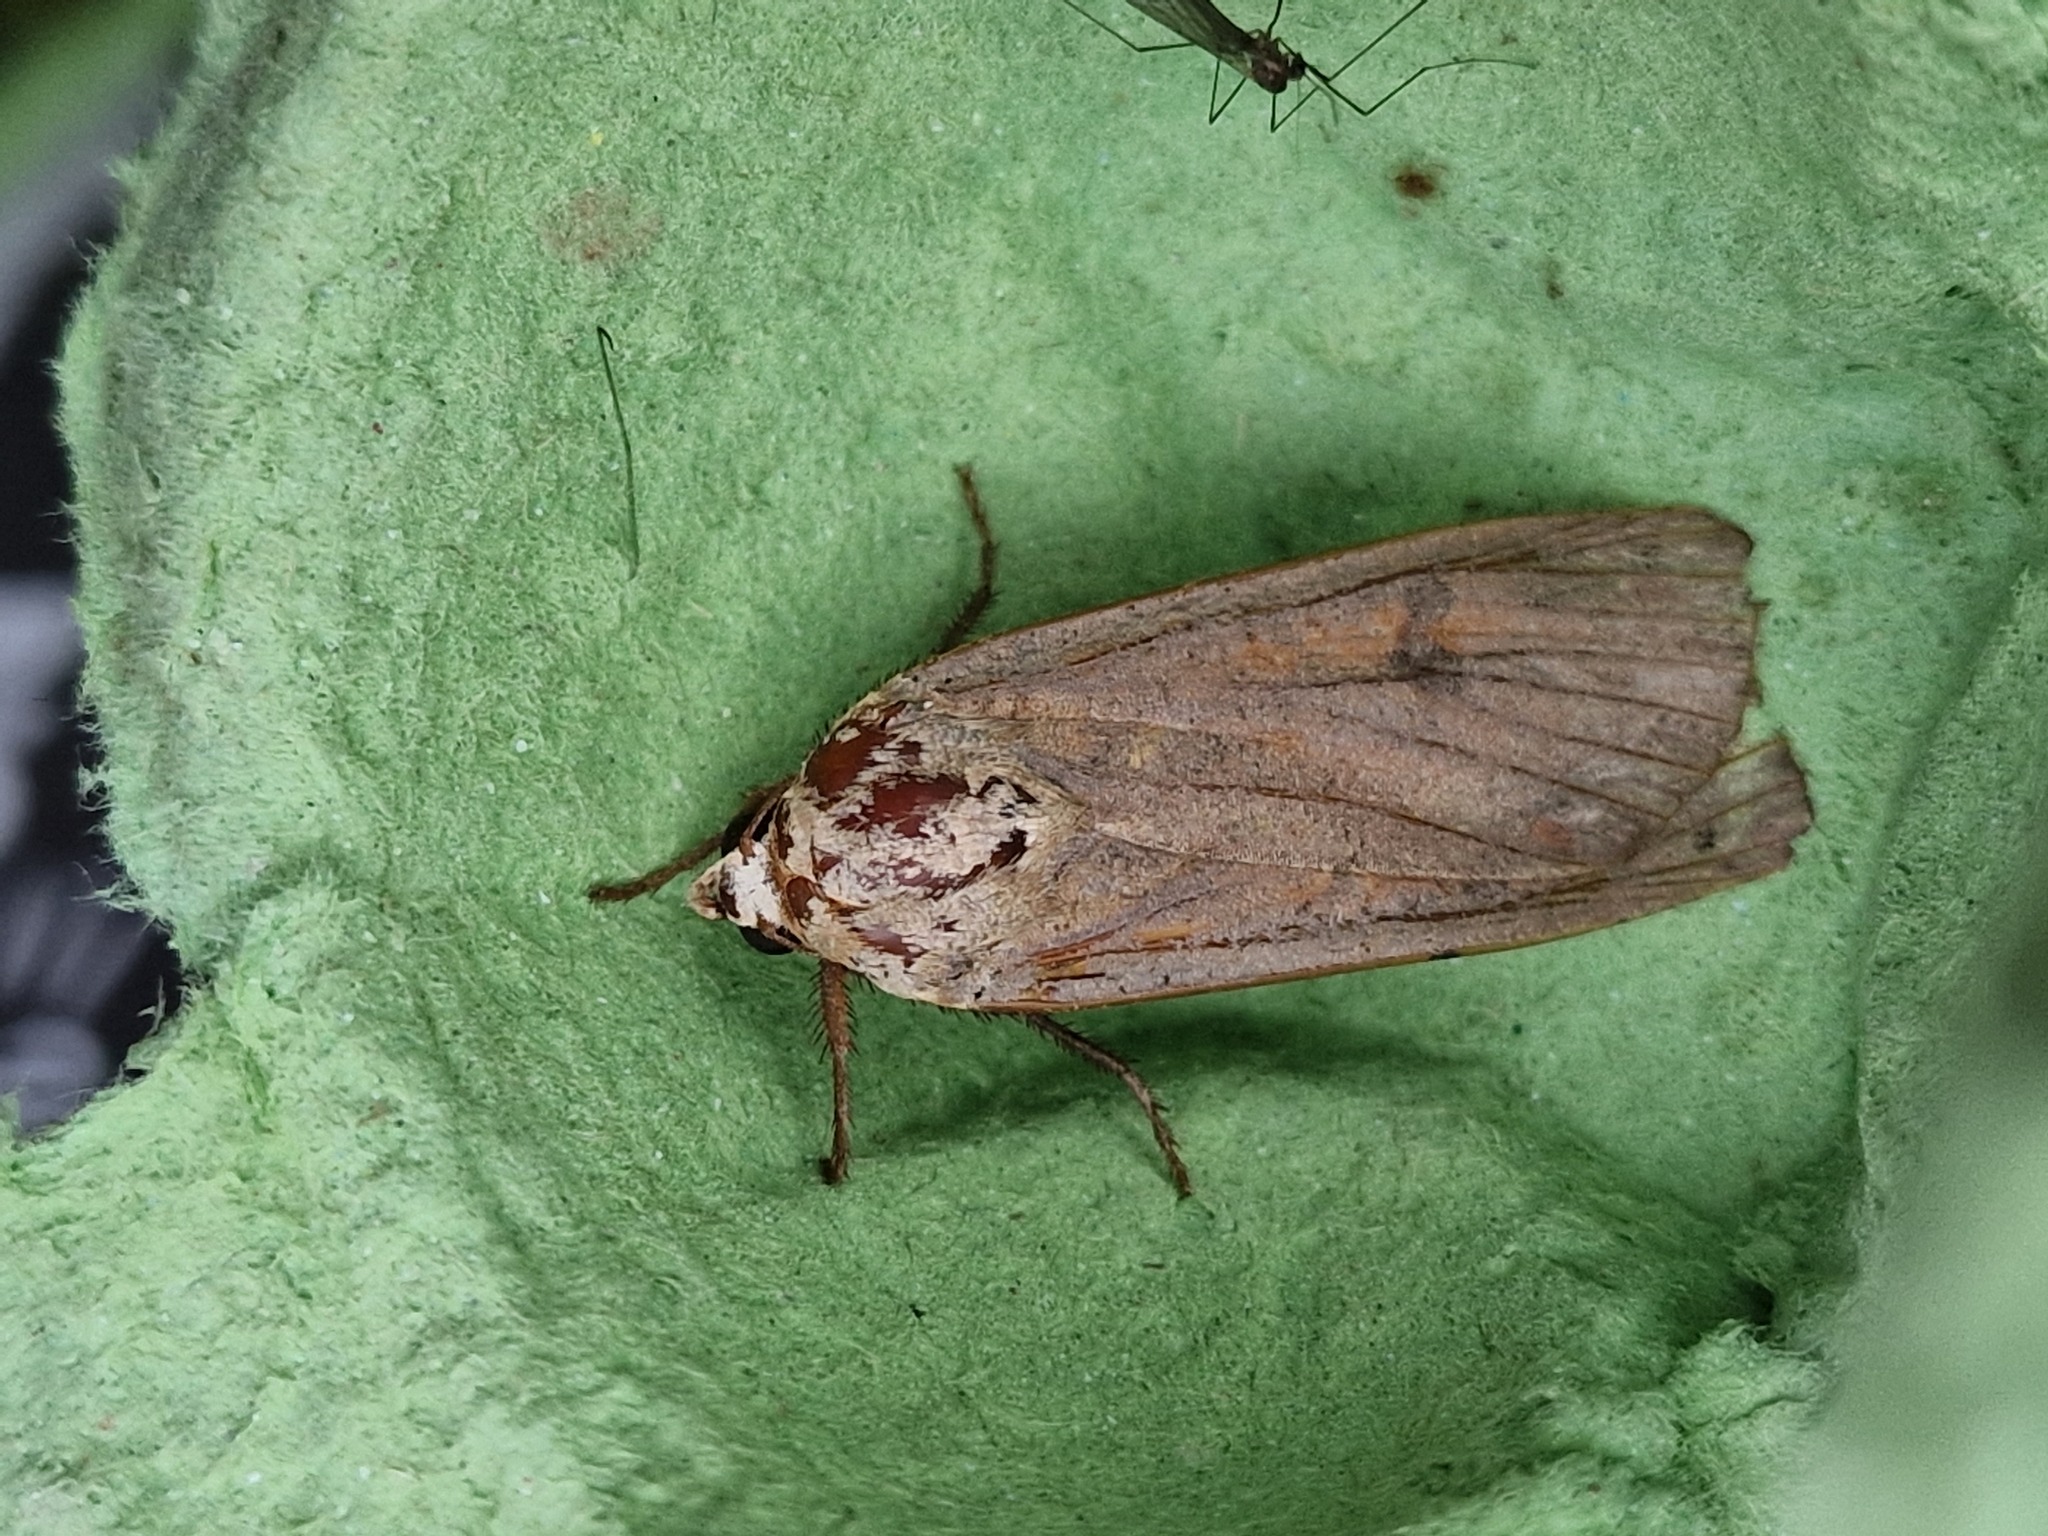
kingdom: Animalia
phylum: Arthropoda
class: Insecta
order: Lepidoptera
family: Noctuidae
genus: Noctua
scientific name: Noctua pronuba
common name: Large yellow underwing
